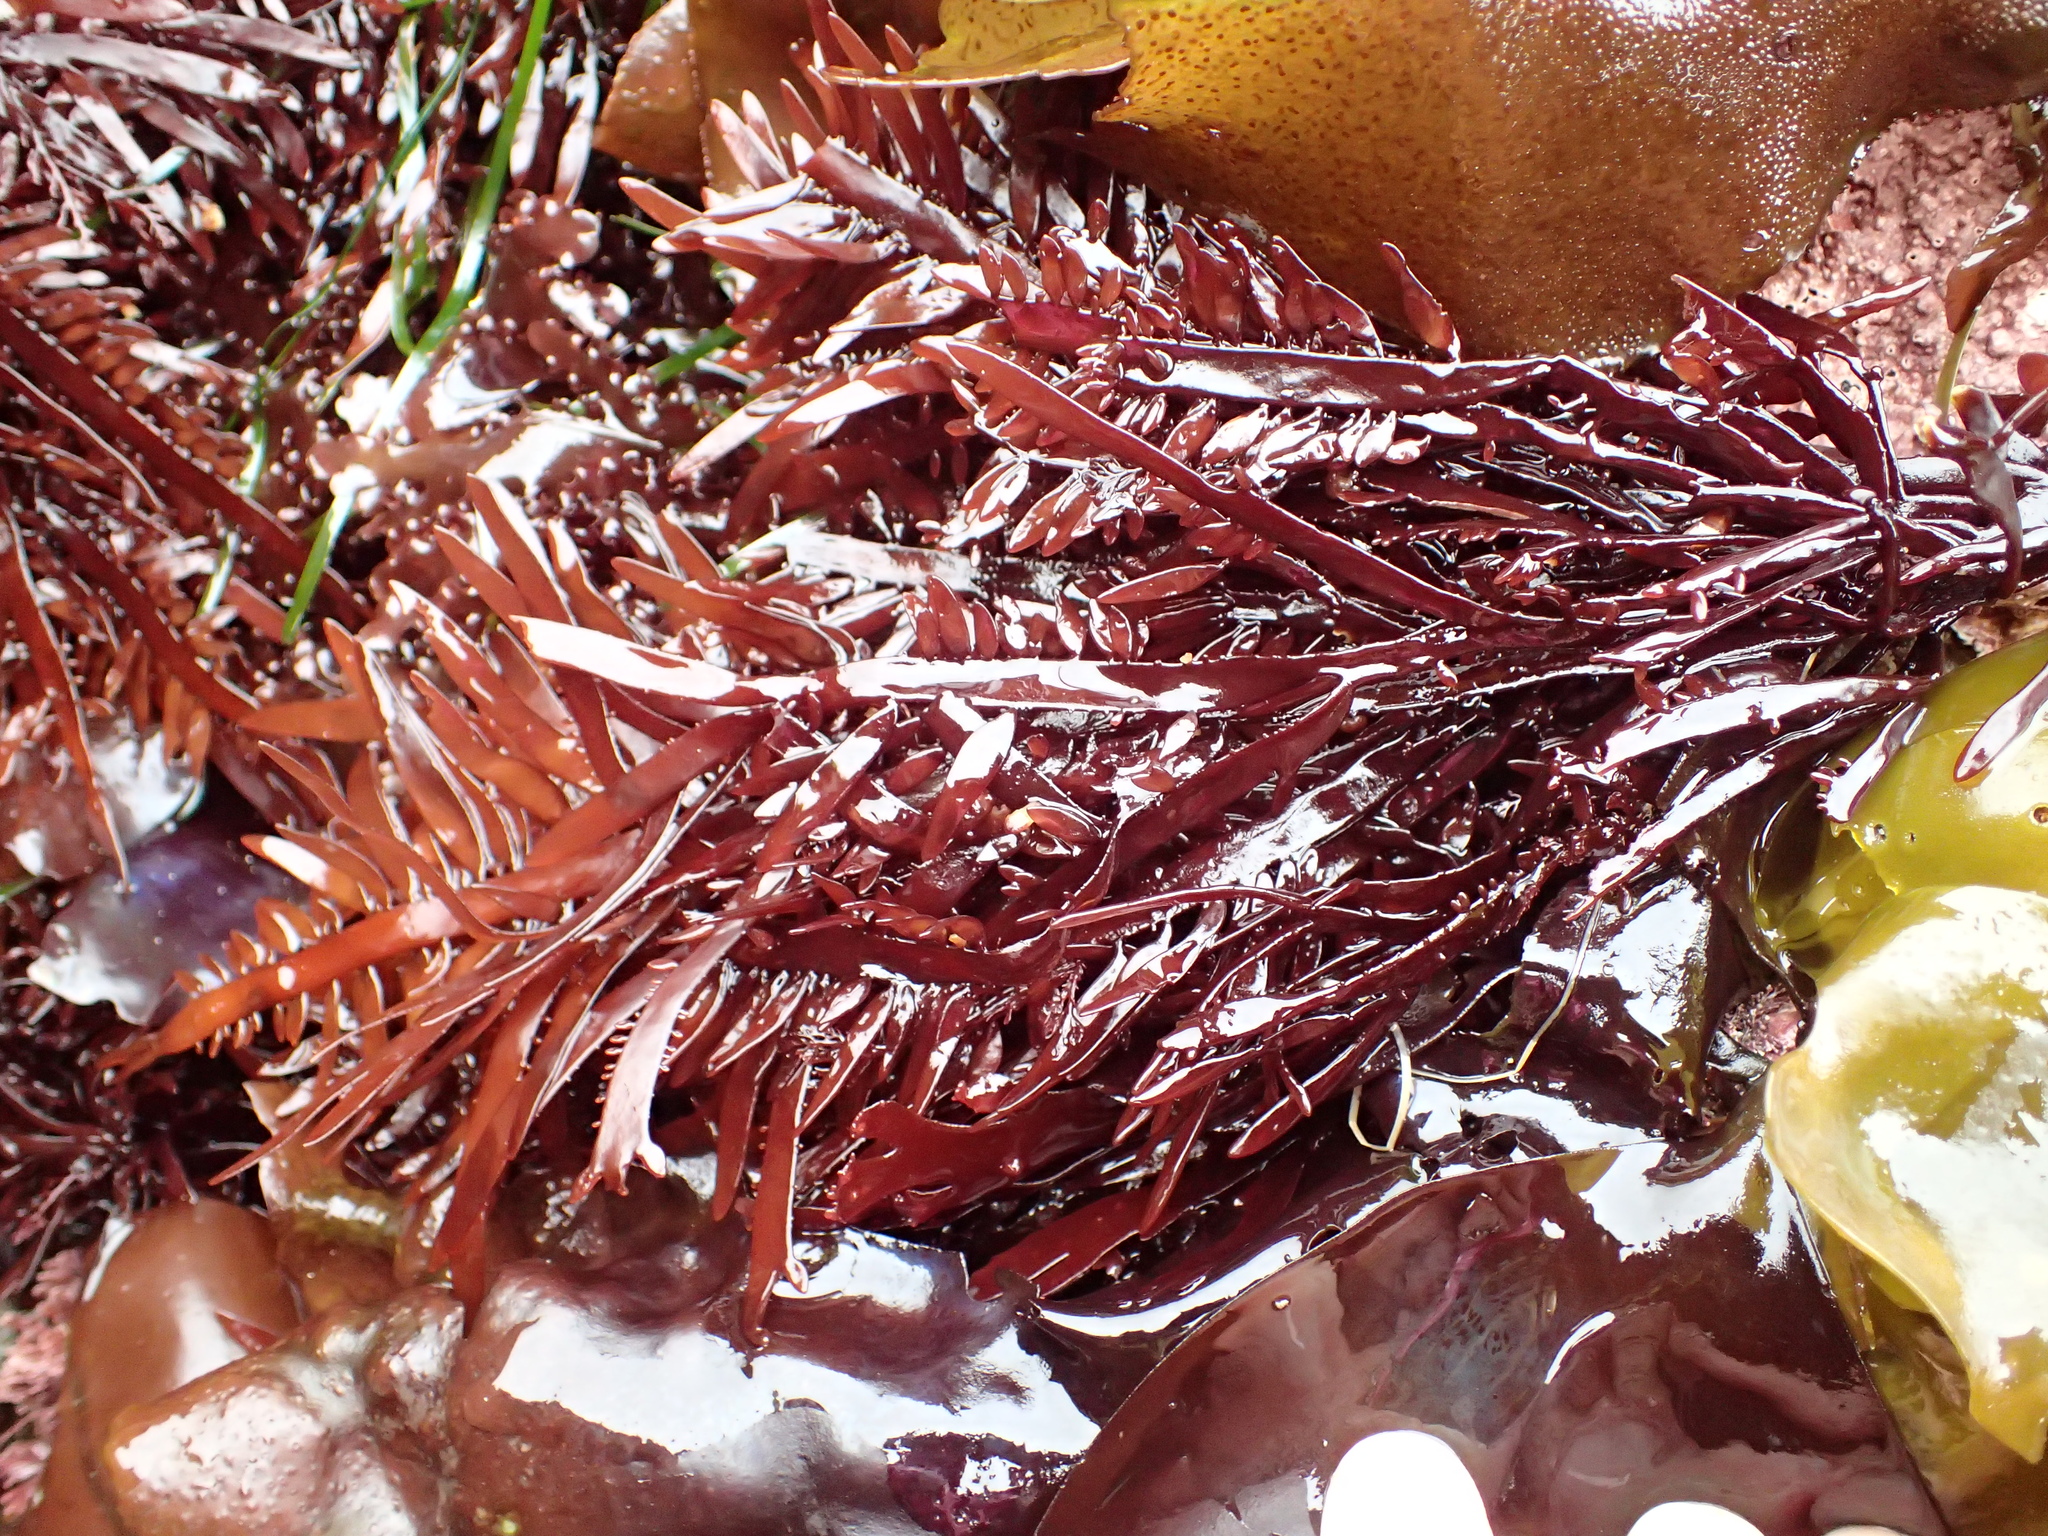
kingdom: Plantae
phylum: Rhodophyta
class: Florideophyceae
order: Halymeniales
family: Halymeniaceae
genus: Grateloupia
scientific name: Grateloupia Prionitis lanceolata
